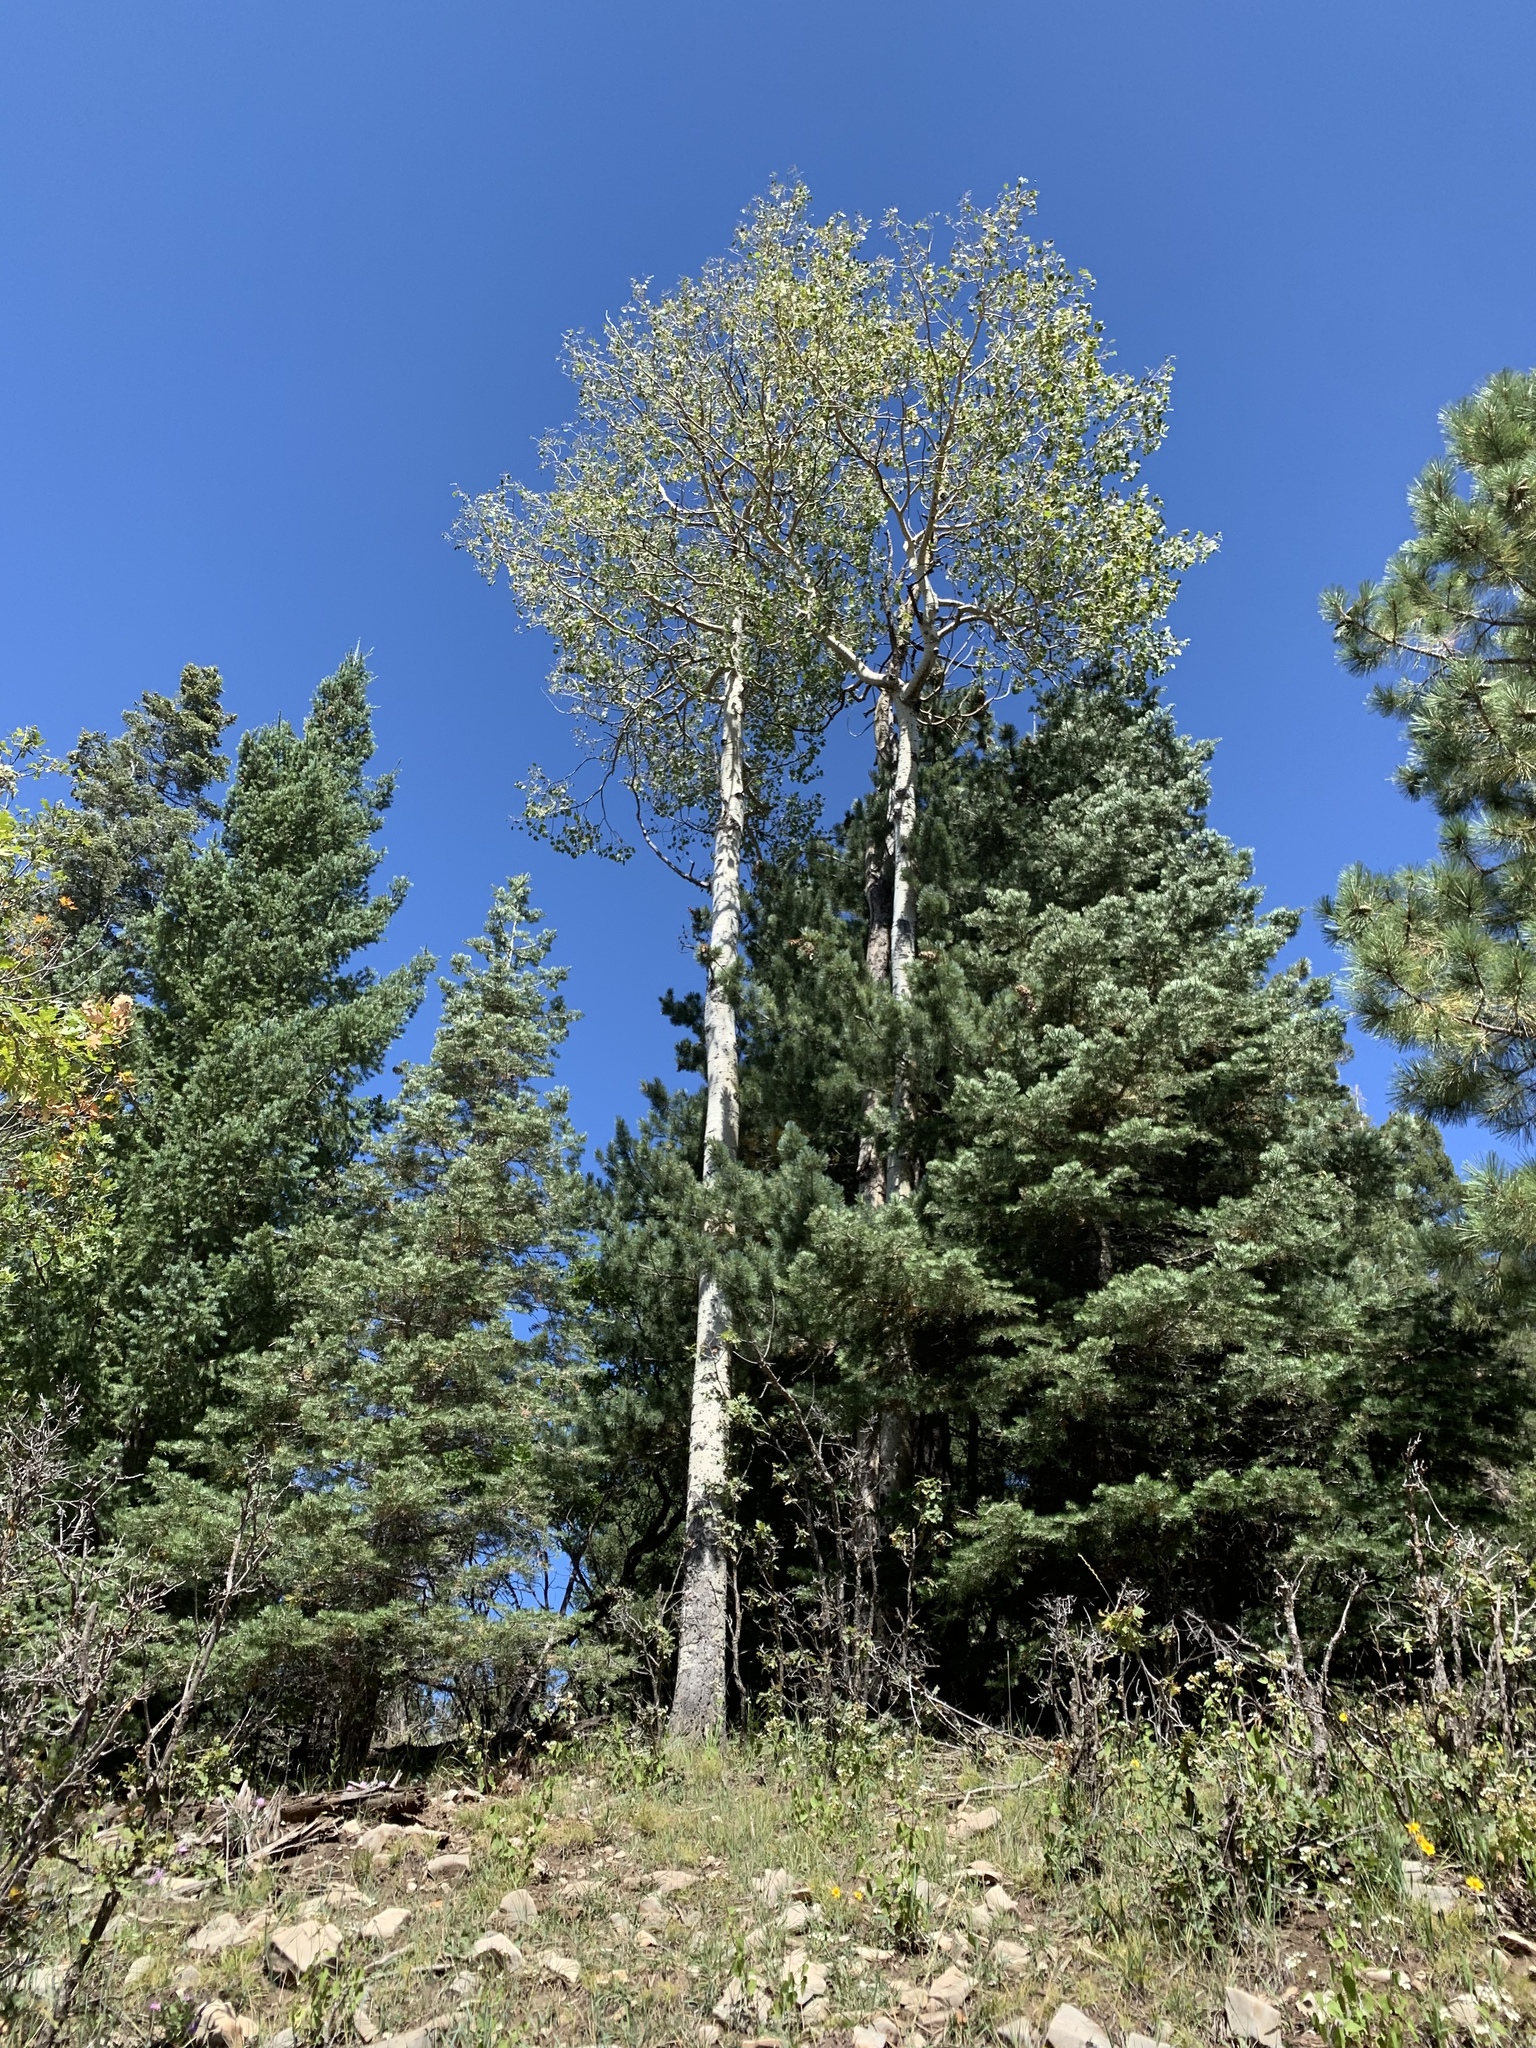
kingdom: Plantae
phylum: Tracheophyta
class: Magnoliopsida
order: Malpighiales
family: Salicaceae
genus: Populus
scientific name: Populus tremuloides
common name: Quaking aspen
